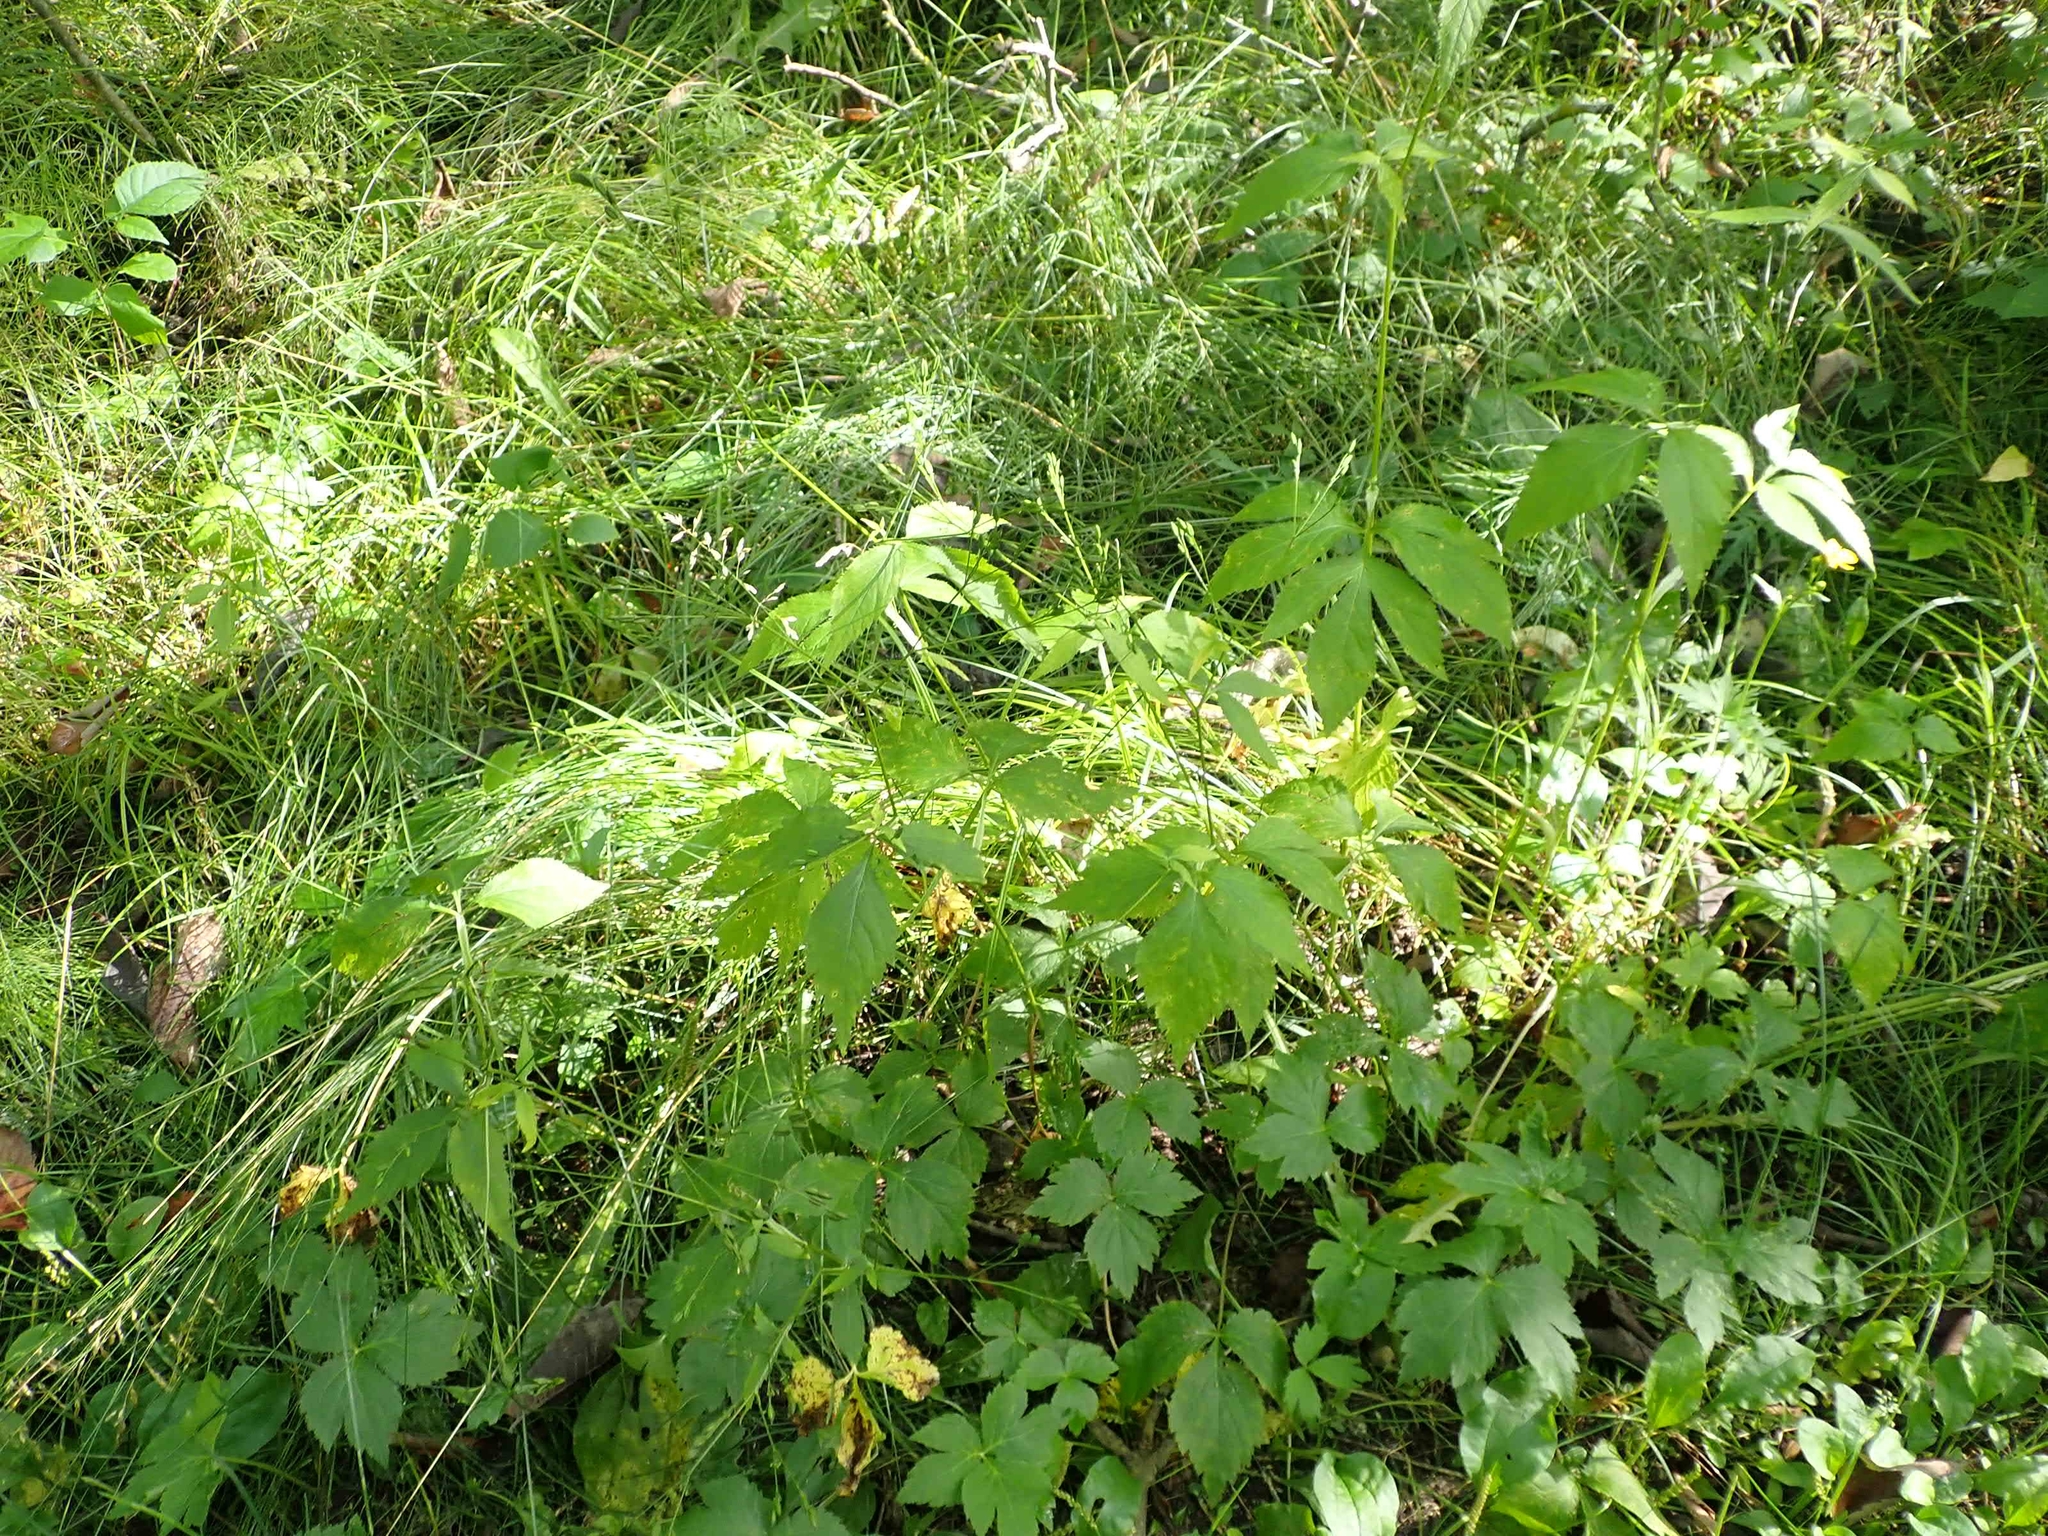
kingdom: Plantae
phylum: Tracheophyta
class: Magnoliopsida
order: Apiales
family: Apiaceae
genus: Cryptotaenia
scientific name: Cryptotaenia canadensis
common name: Honewort
